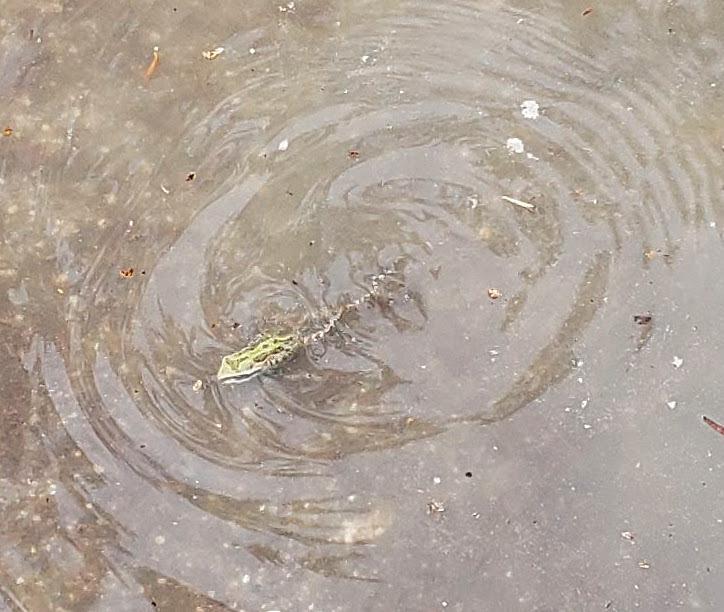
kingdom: Animalia
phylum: Chordata
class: Amphibia
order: Anura
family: Hylidae
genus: Pseudacris
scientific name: Pseudacris regilla
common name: Pacific chorus frog
